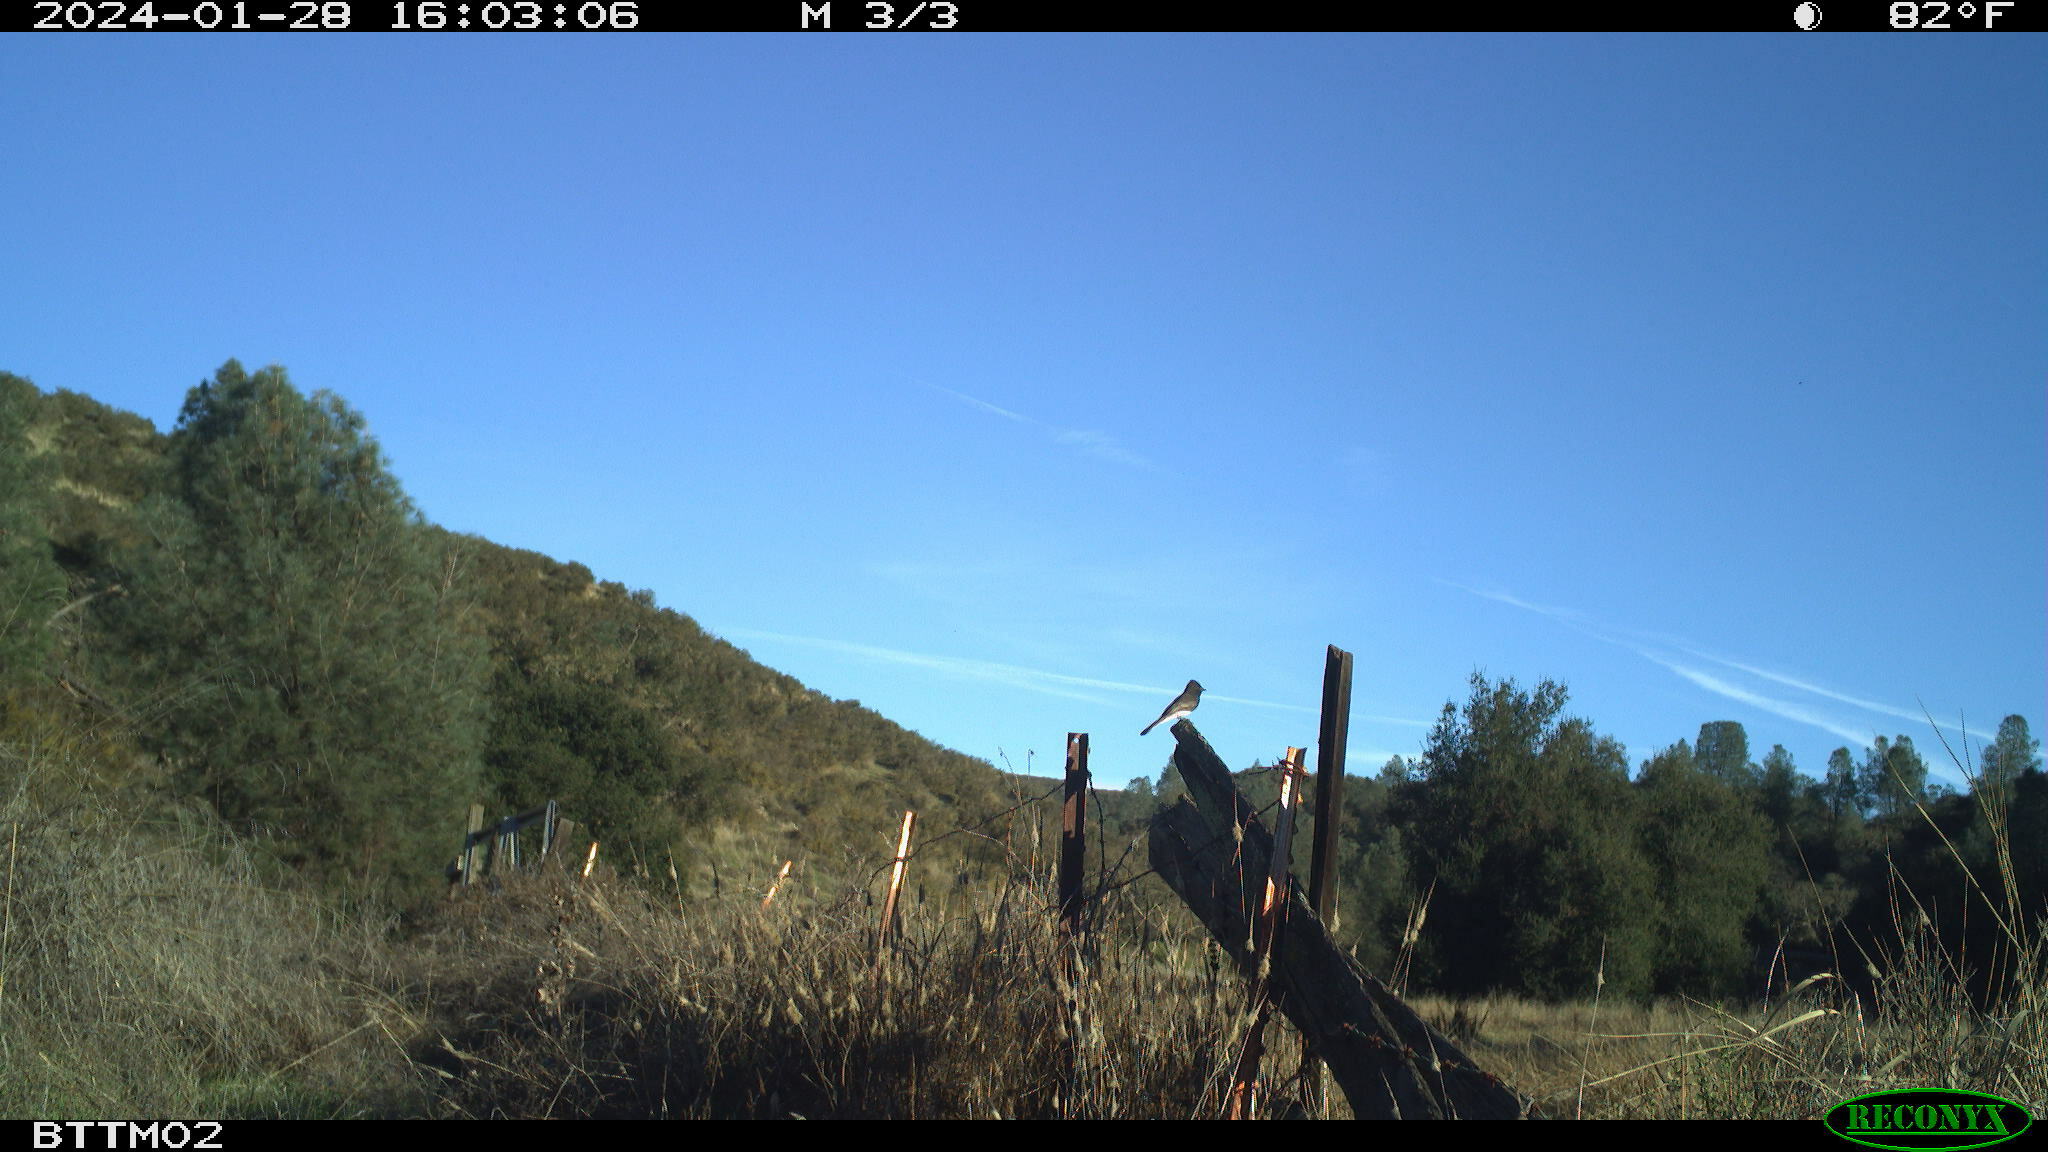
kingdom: Animalia
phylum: Chordata
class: Aves
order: Passeriformes
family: Tyrannidae
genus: Sayornis
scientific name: Sayornis nigricans
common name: Black phoebe
